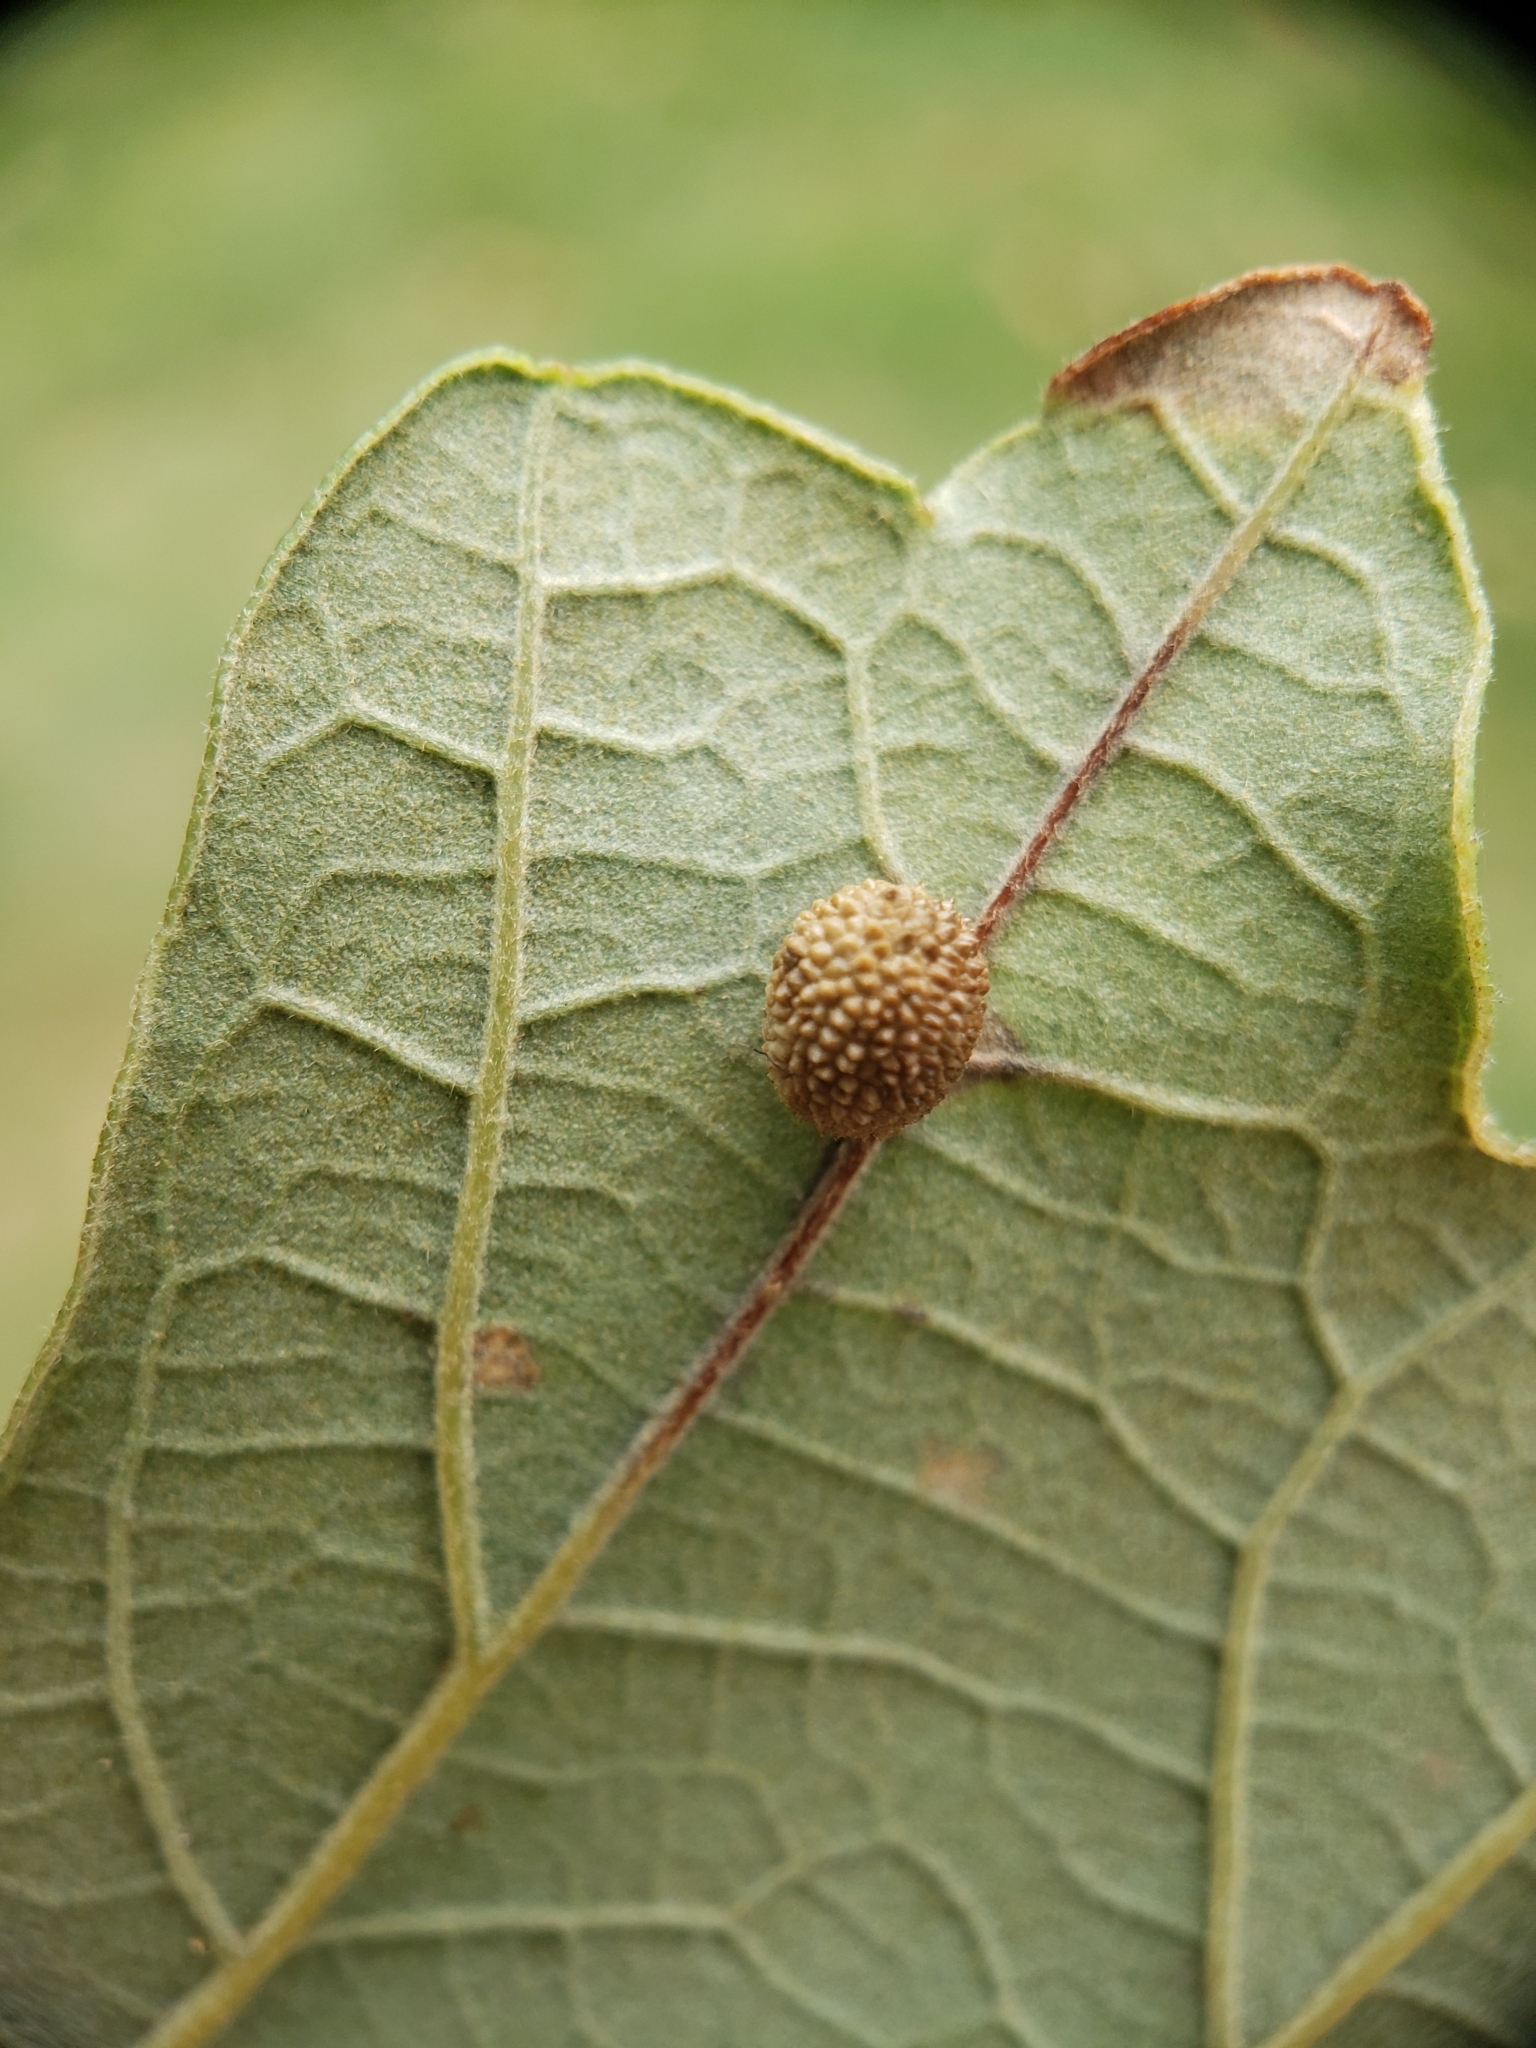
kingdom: Animalia
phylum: Arthropoda
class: Insecta
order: Hymenoptera
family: Cynipidae
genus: Acraspis
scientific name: Acraspis quercushirta
